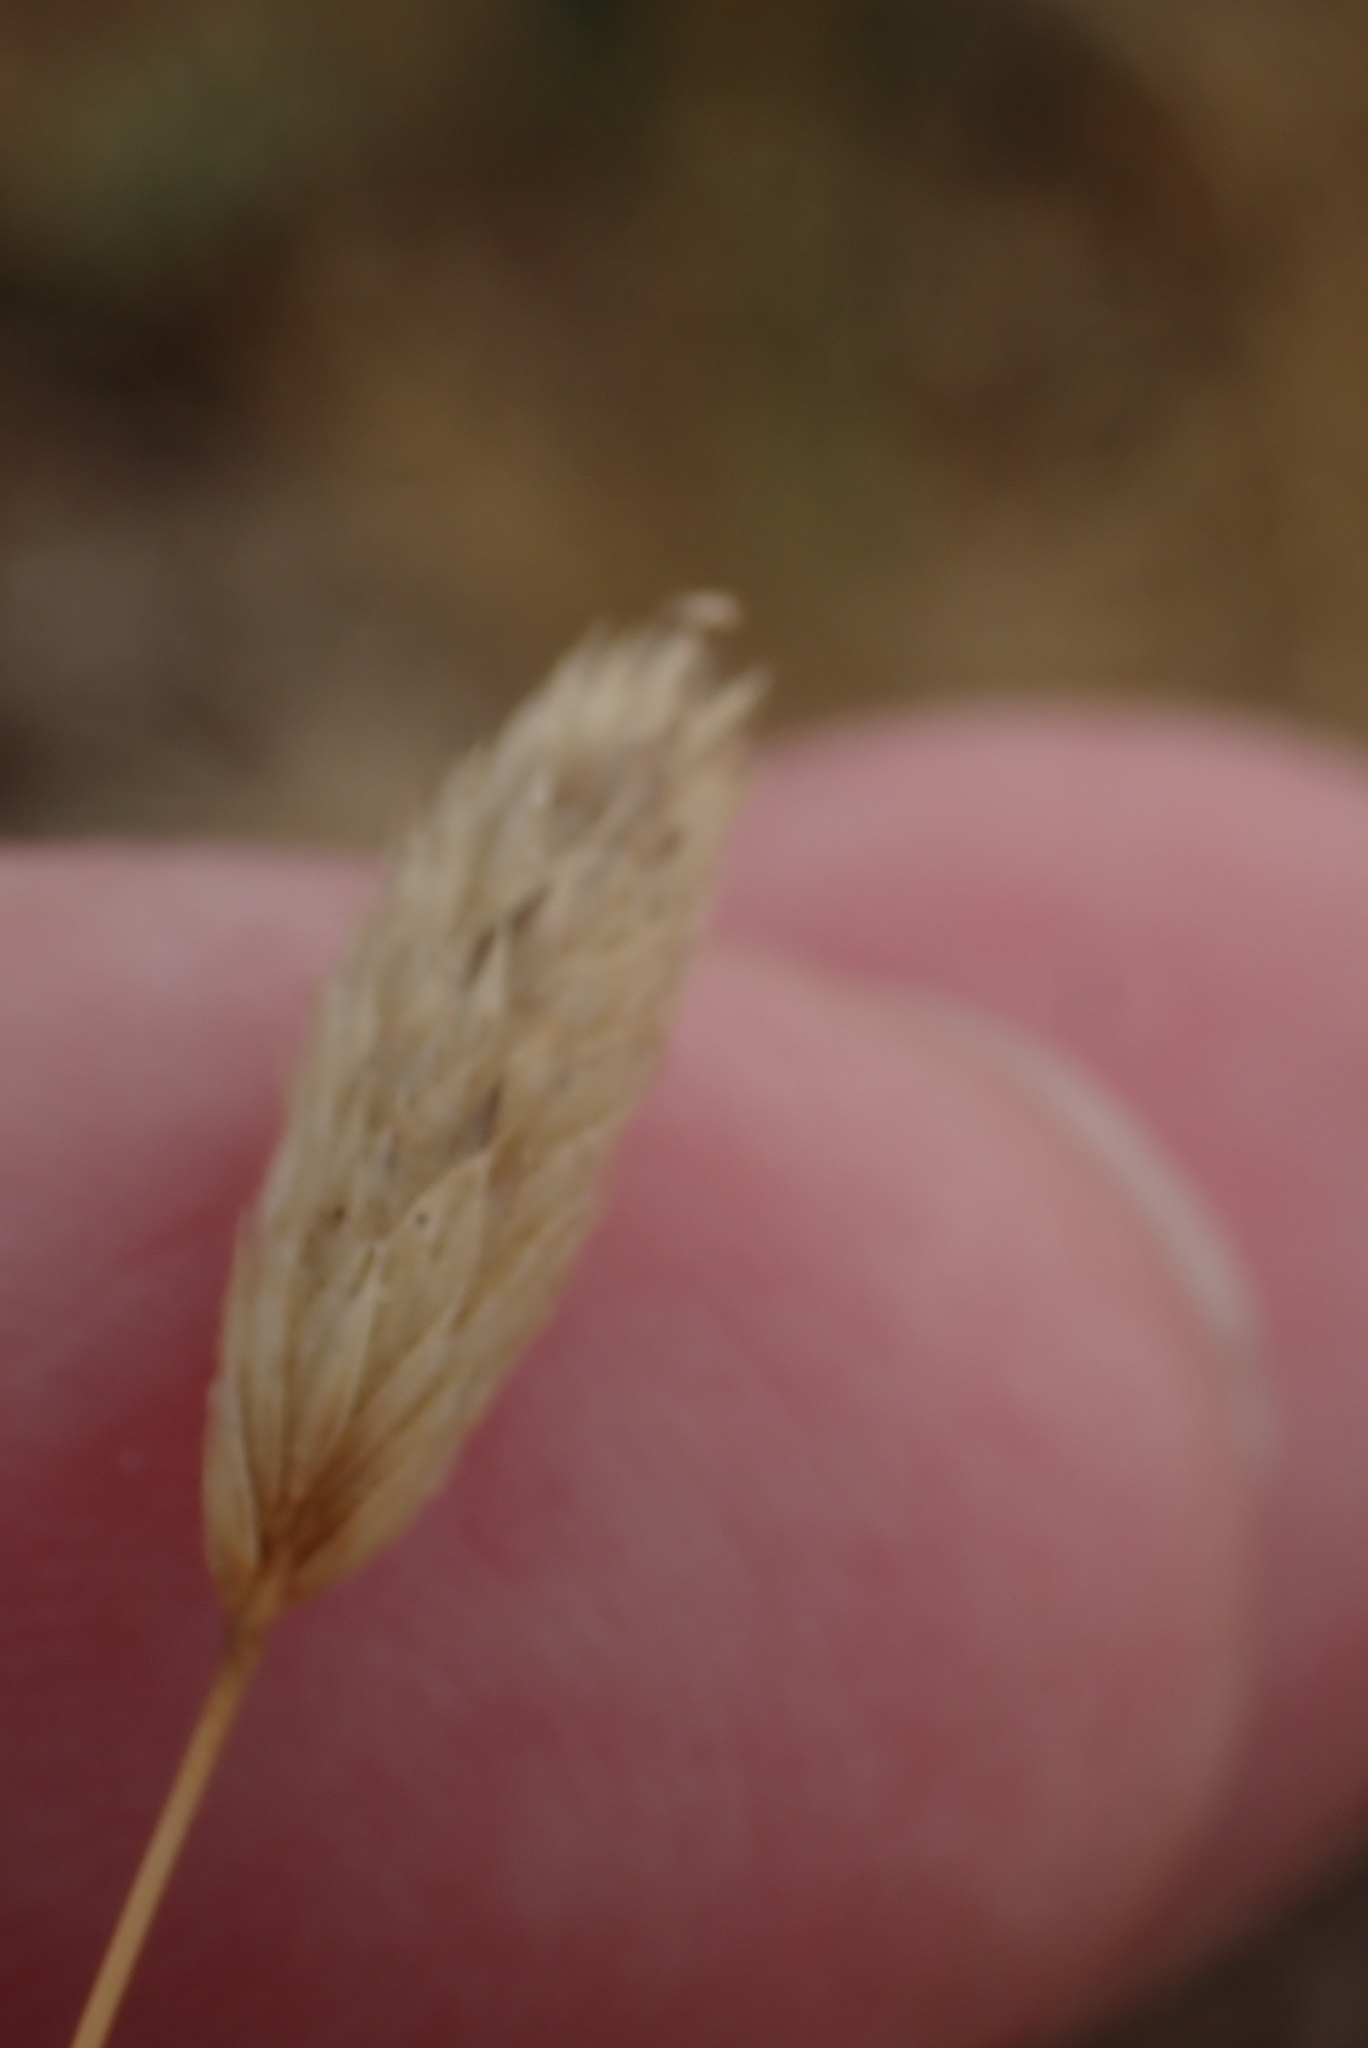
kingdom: Plantae
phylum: Tracheophyta
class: Liliopsida
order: Poales
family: Poaceae
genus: Phleum
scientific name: Phleum arenarium
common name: Sand cat's-tail
